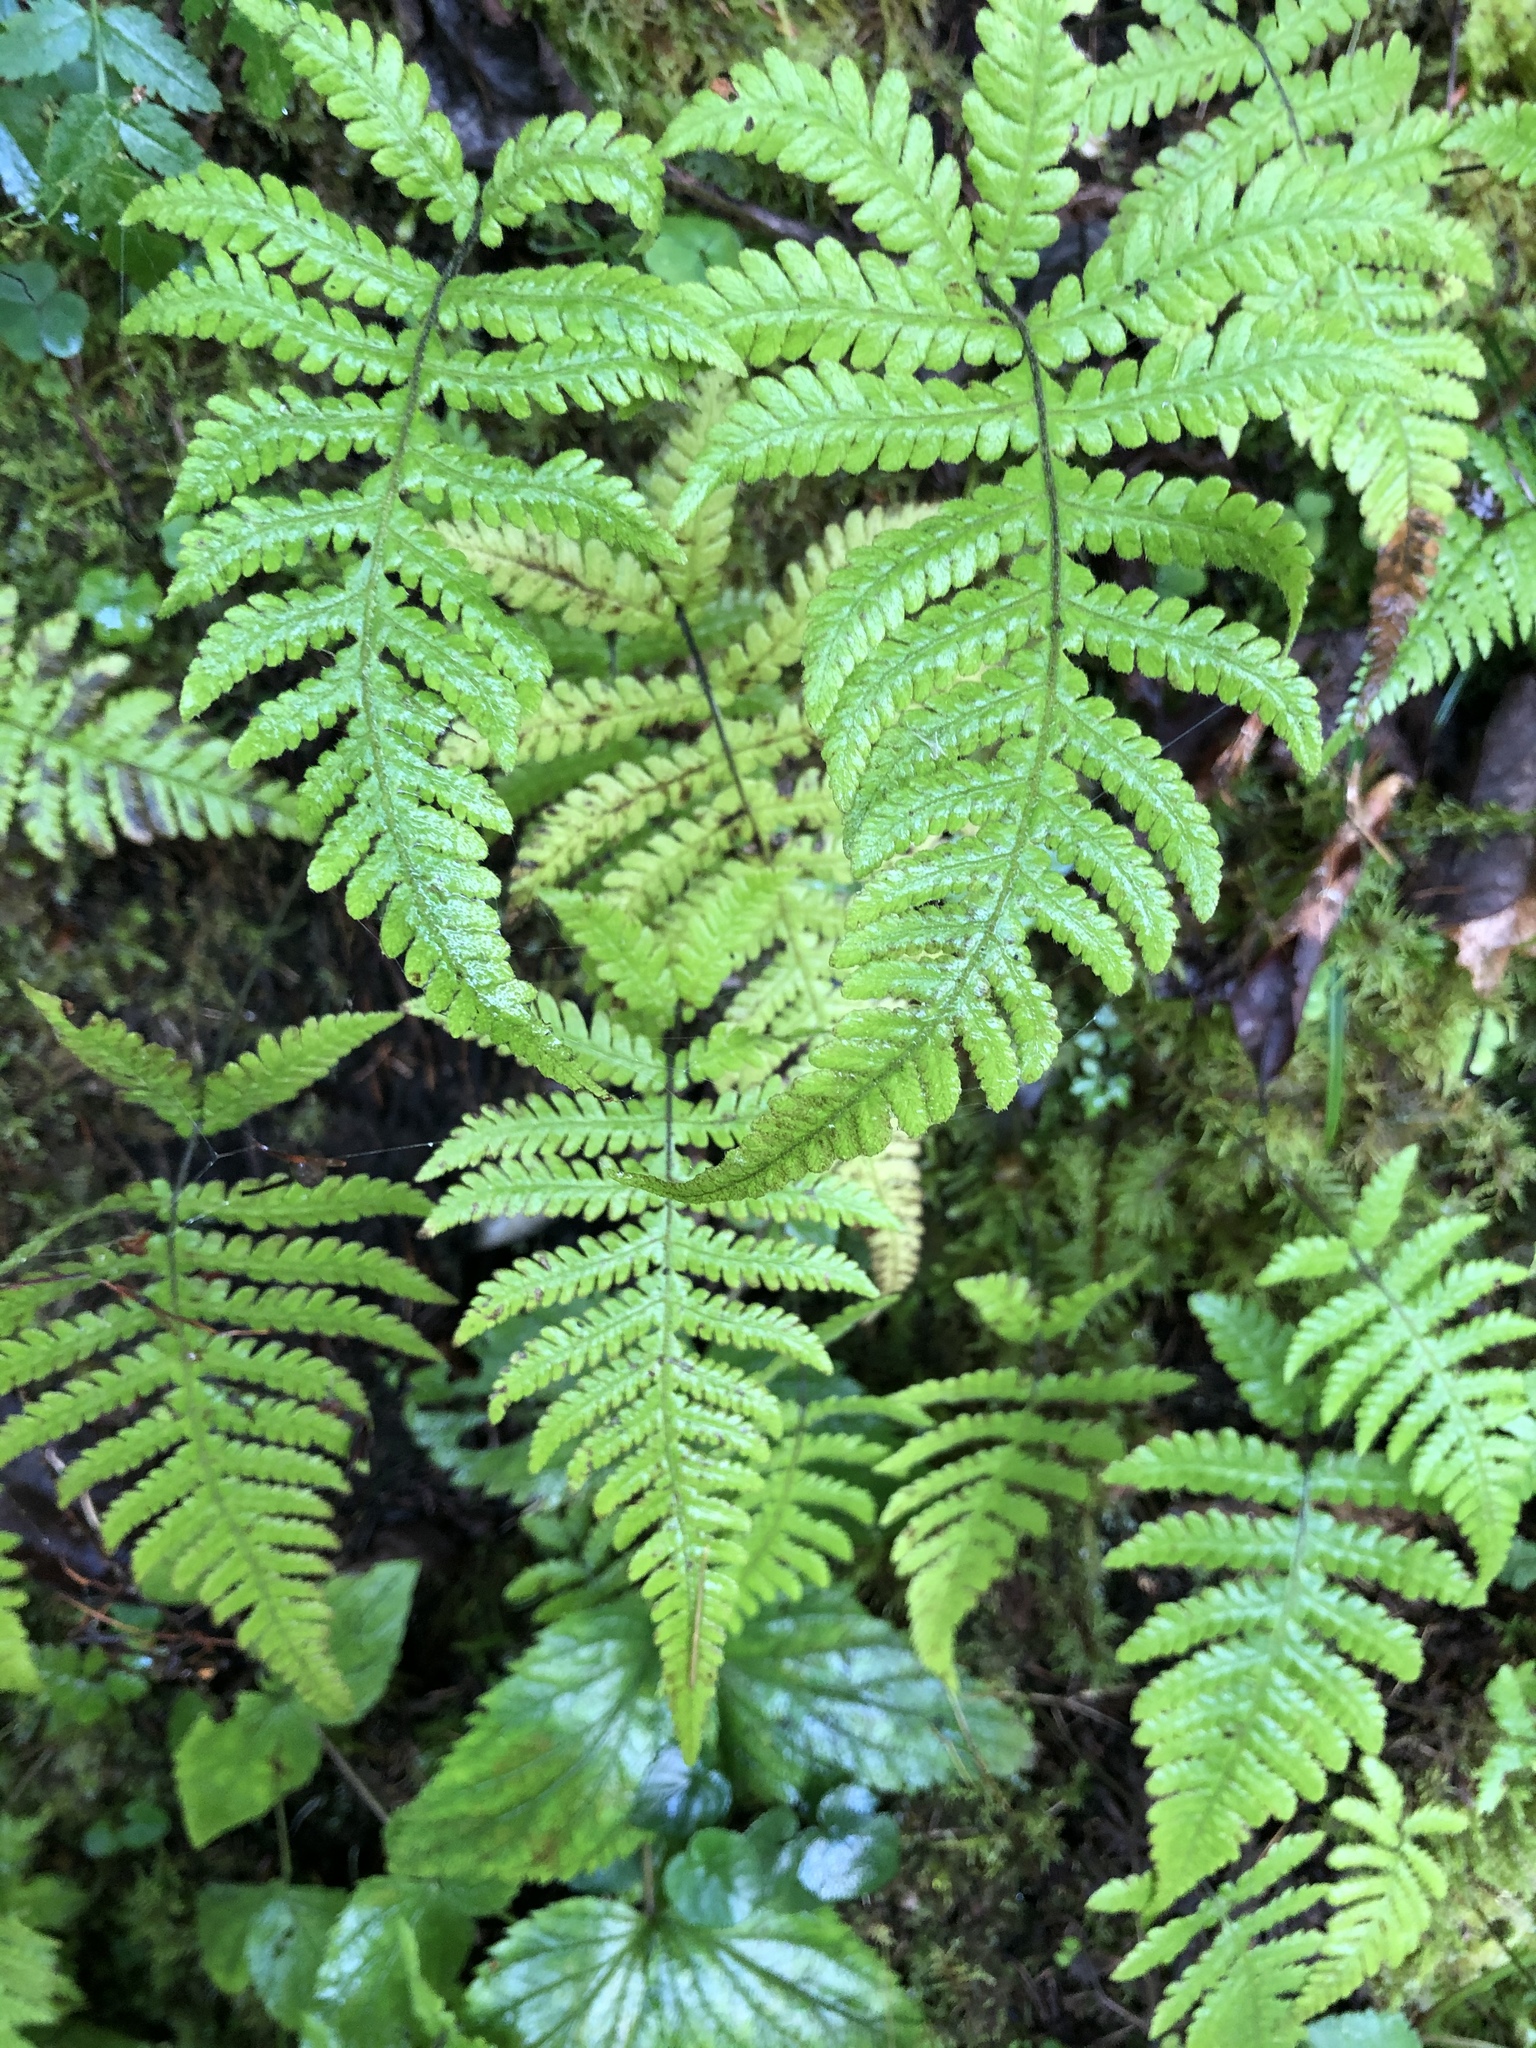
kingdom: Plantae
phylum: Tracheophyta
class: Polypodiopsida
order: Polypodiales
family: Thelypteridaceae
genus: Phegopteris
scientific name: Phegopteris connectilis
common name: Beech fern
